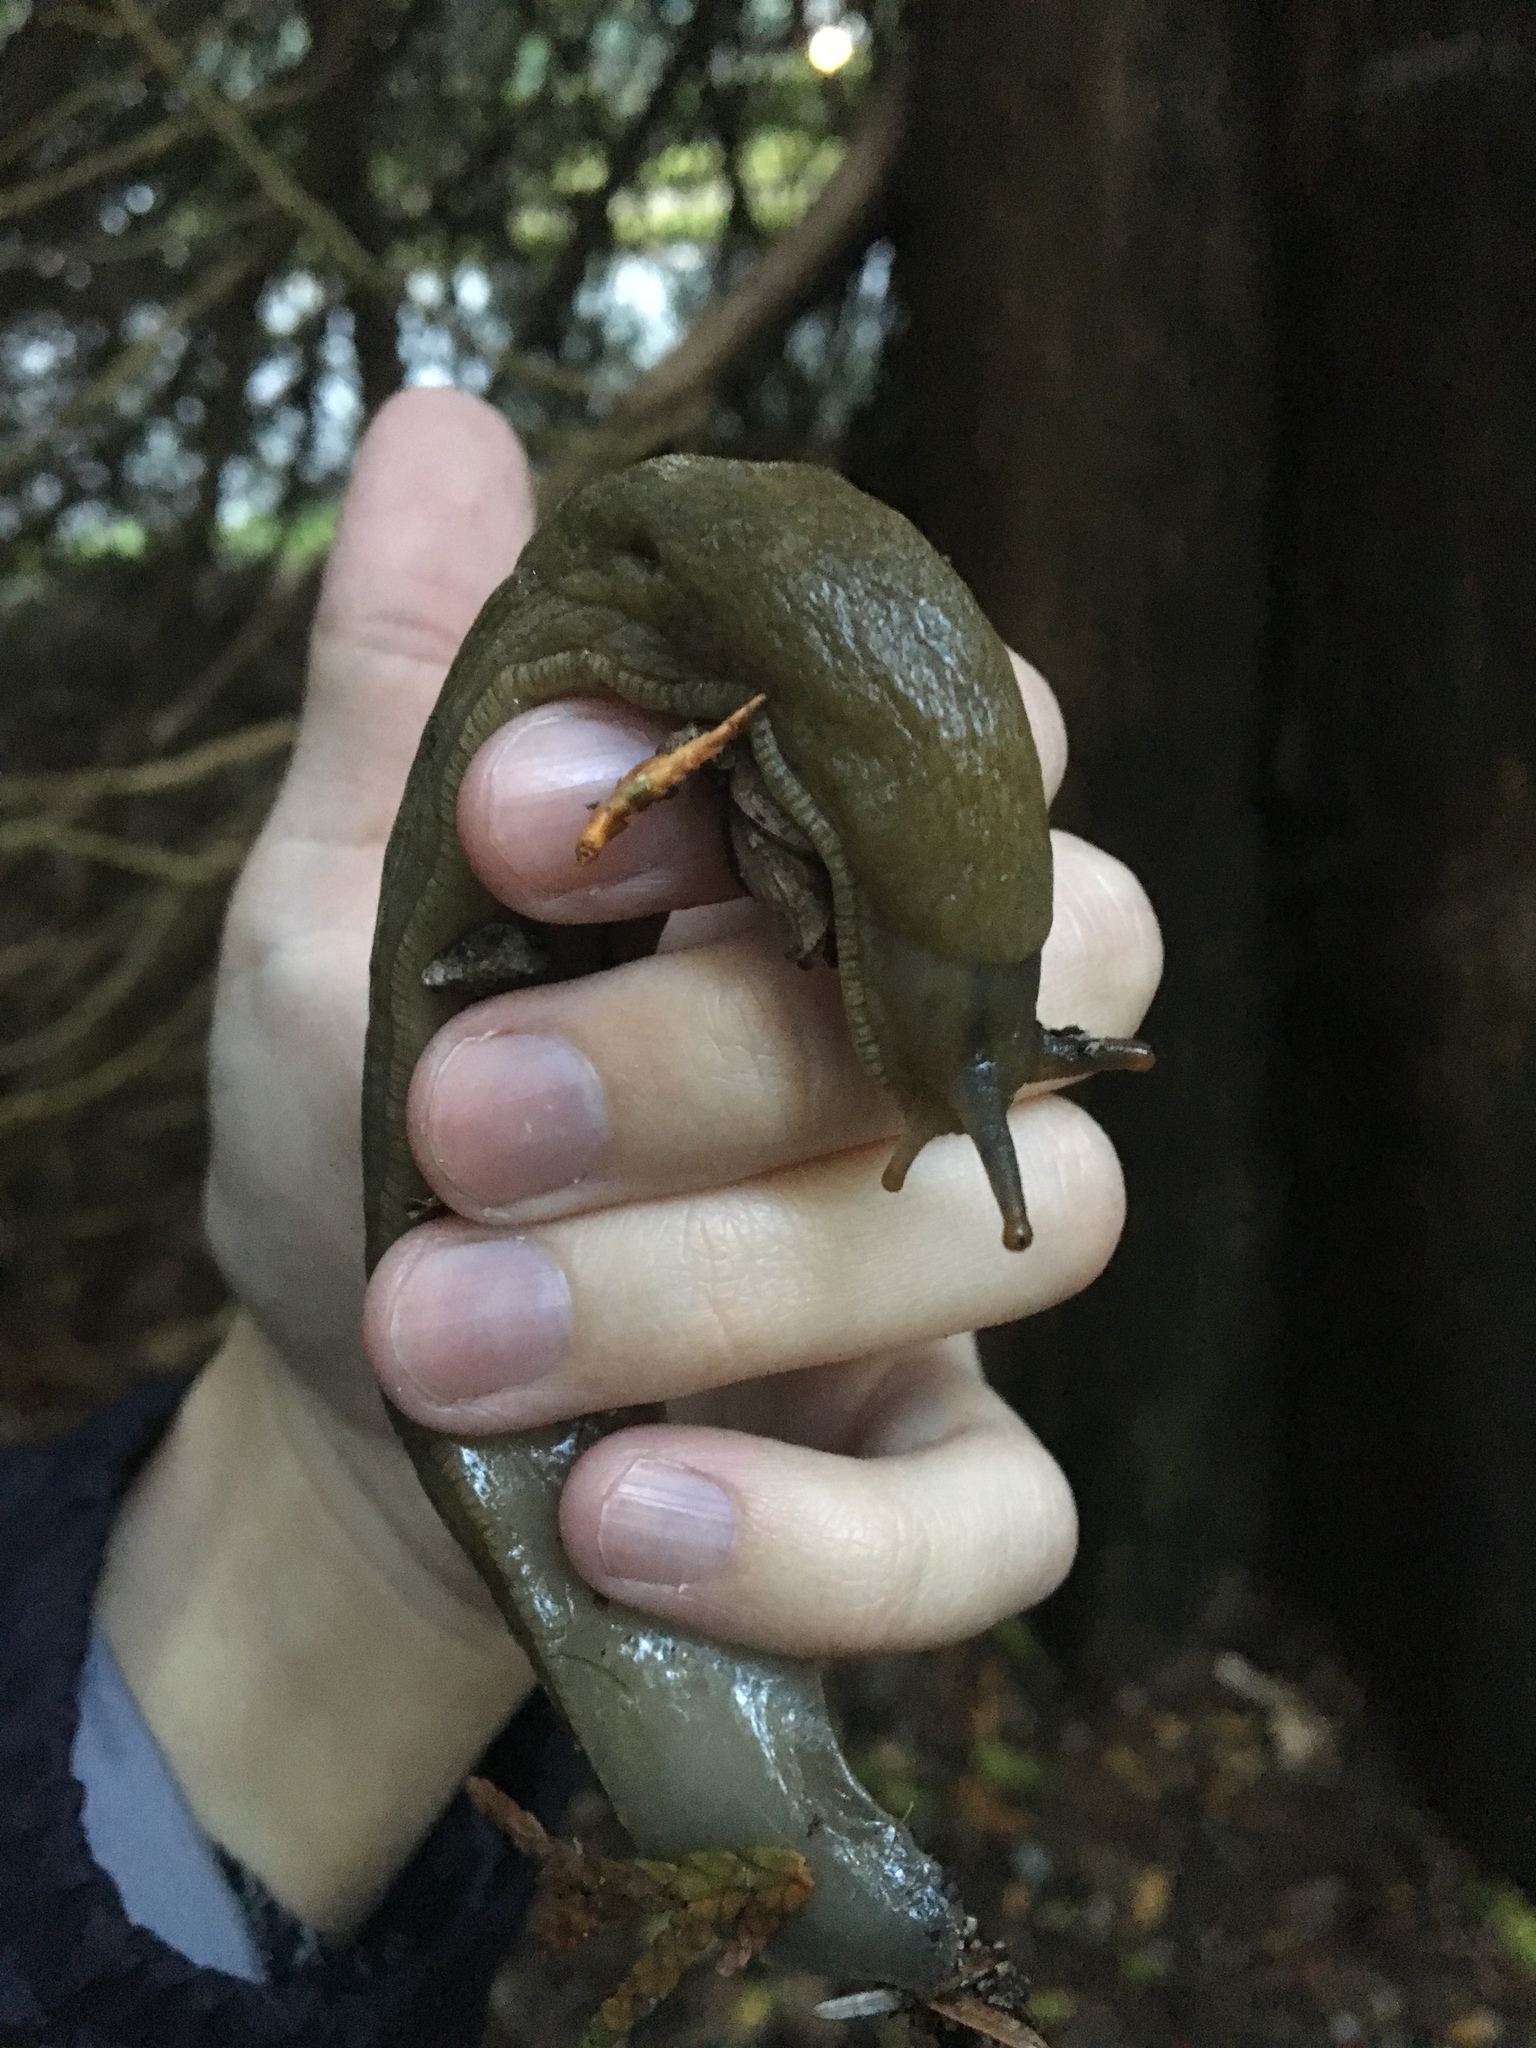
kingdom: Animalia
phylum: Mollusca
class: Gastropoda
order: Stylommatophora
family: Ariolimacidae
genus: Ariolimax
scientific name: Ariolimax columbianus
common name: Pacific banana slug
